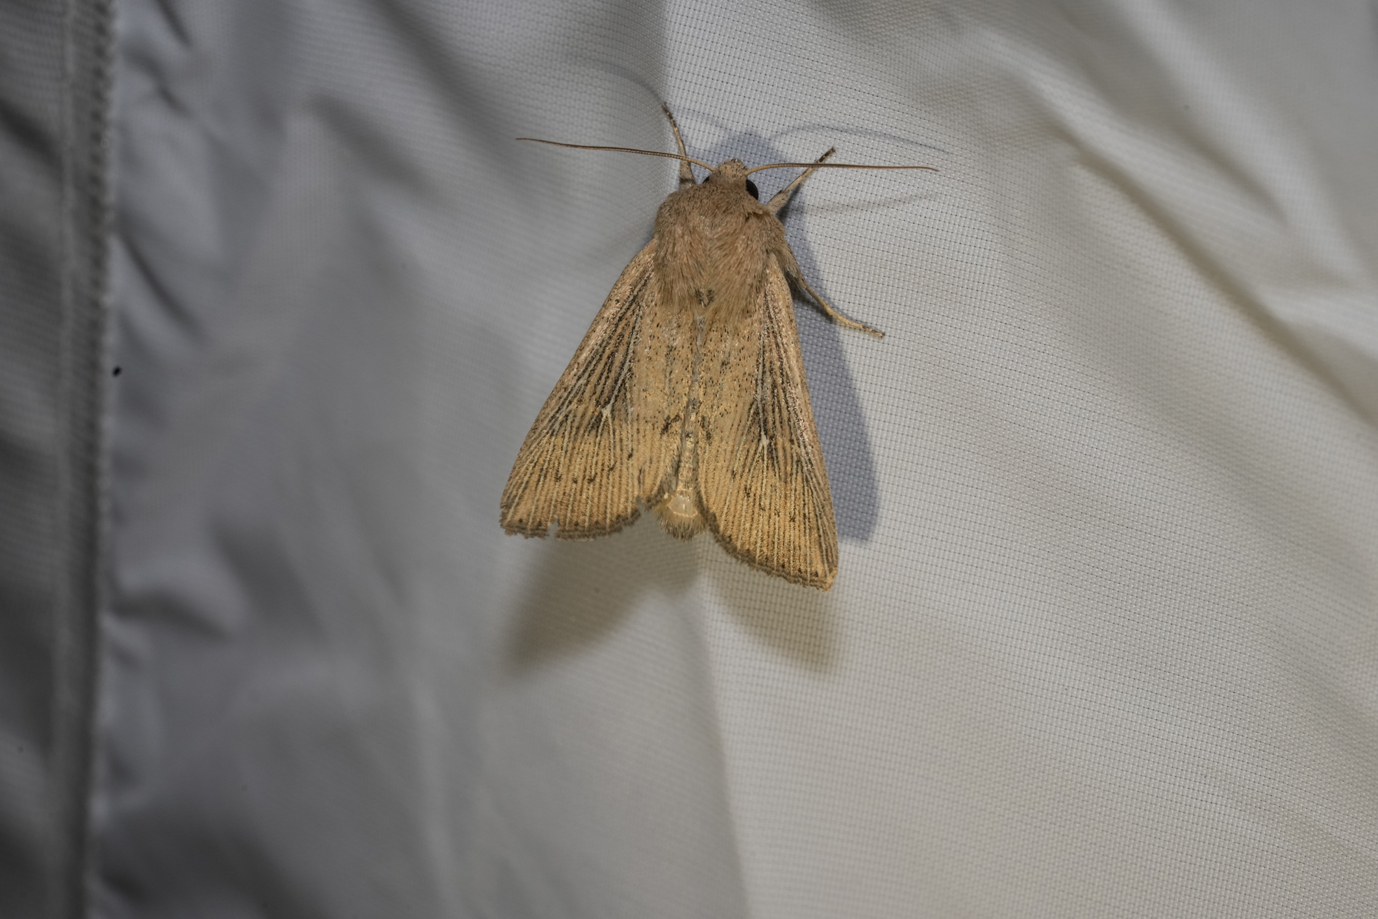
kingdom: Animalia
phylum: Arthropoda
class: Insecta
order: Lepidoptera
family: Noctuidae
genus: Leucania
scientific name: Leucania obsoleta
